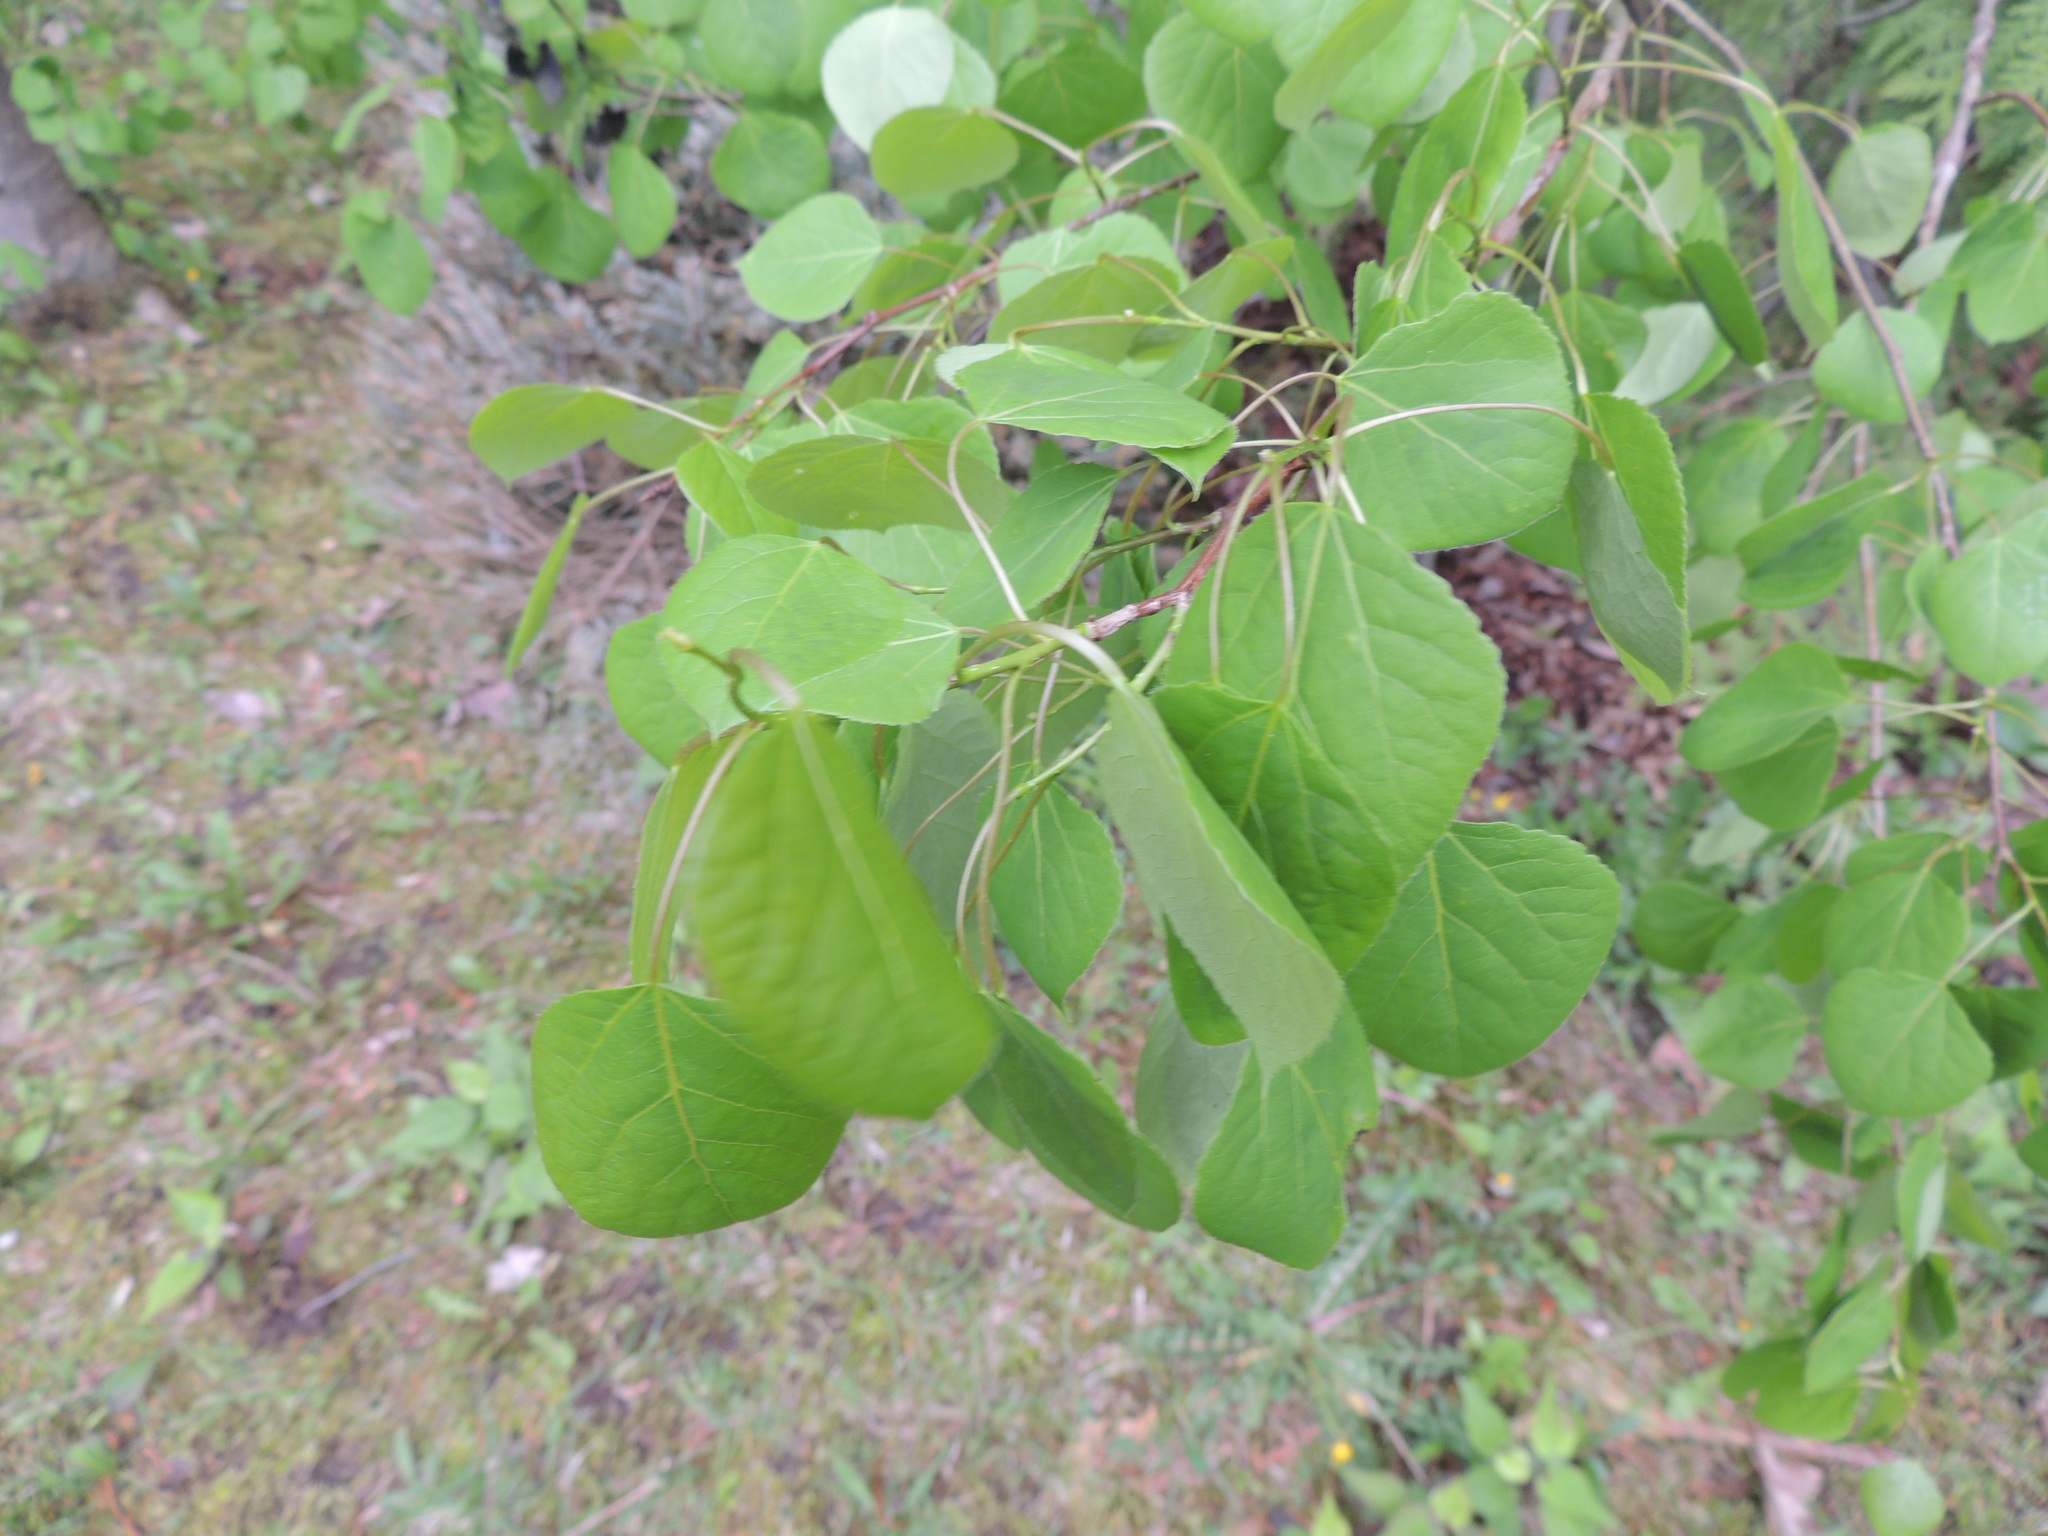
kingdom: Plantae
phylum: Tracheophyta
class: Magnoliopsida
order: Malpighiales
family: Salicaceae
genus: Populus
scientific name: Populus tremuloides
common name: Quaking aspen
